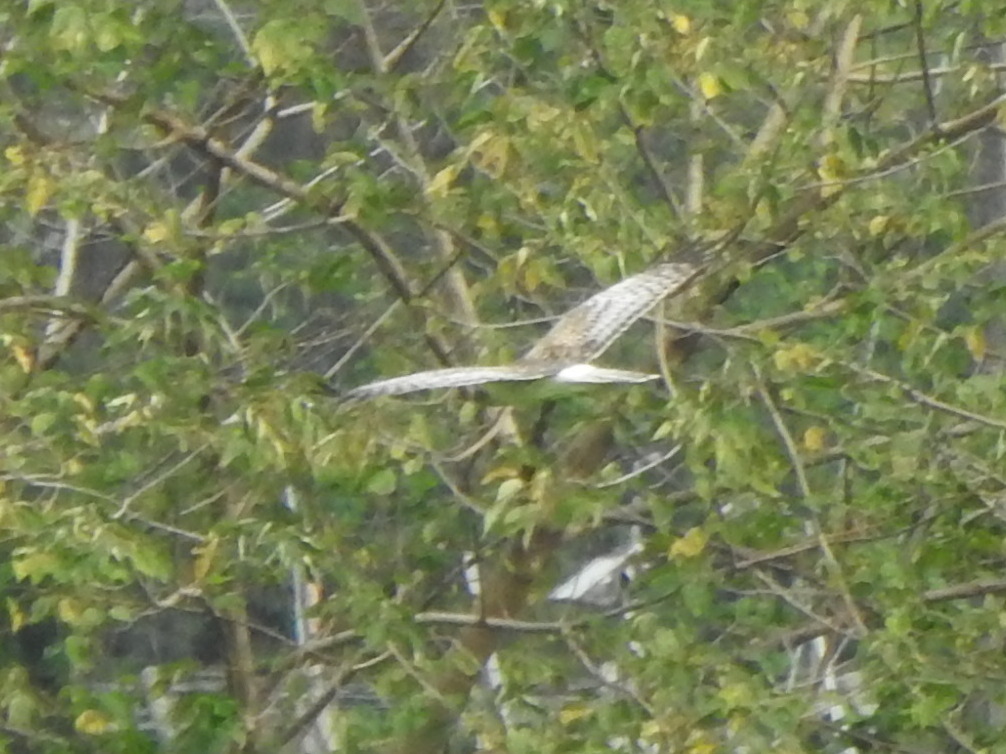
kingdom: Animalia
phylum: Chordata
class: Aves
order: Accipitriformes
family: Accipitridae
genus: Circus
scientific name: Circus spilonotus
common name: Eastern marsh-harrier
